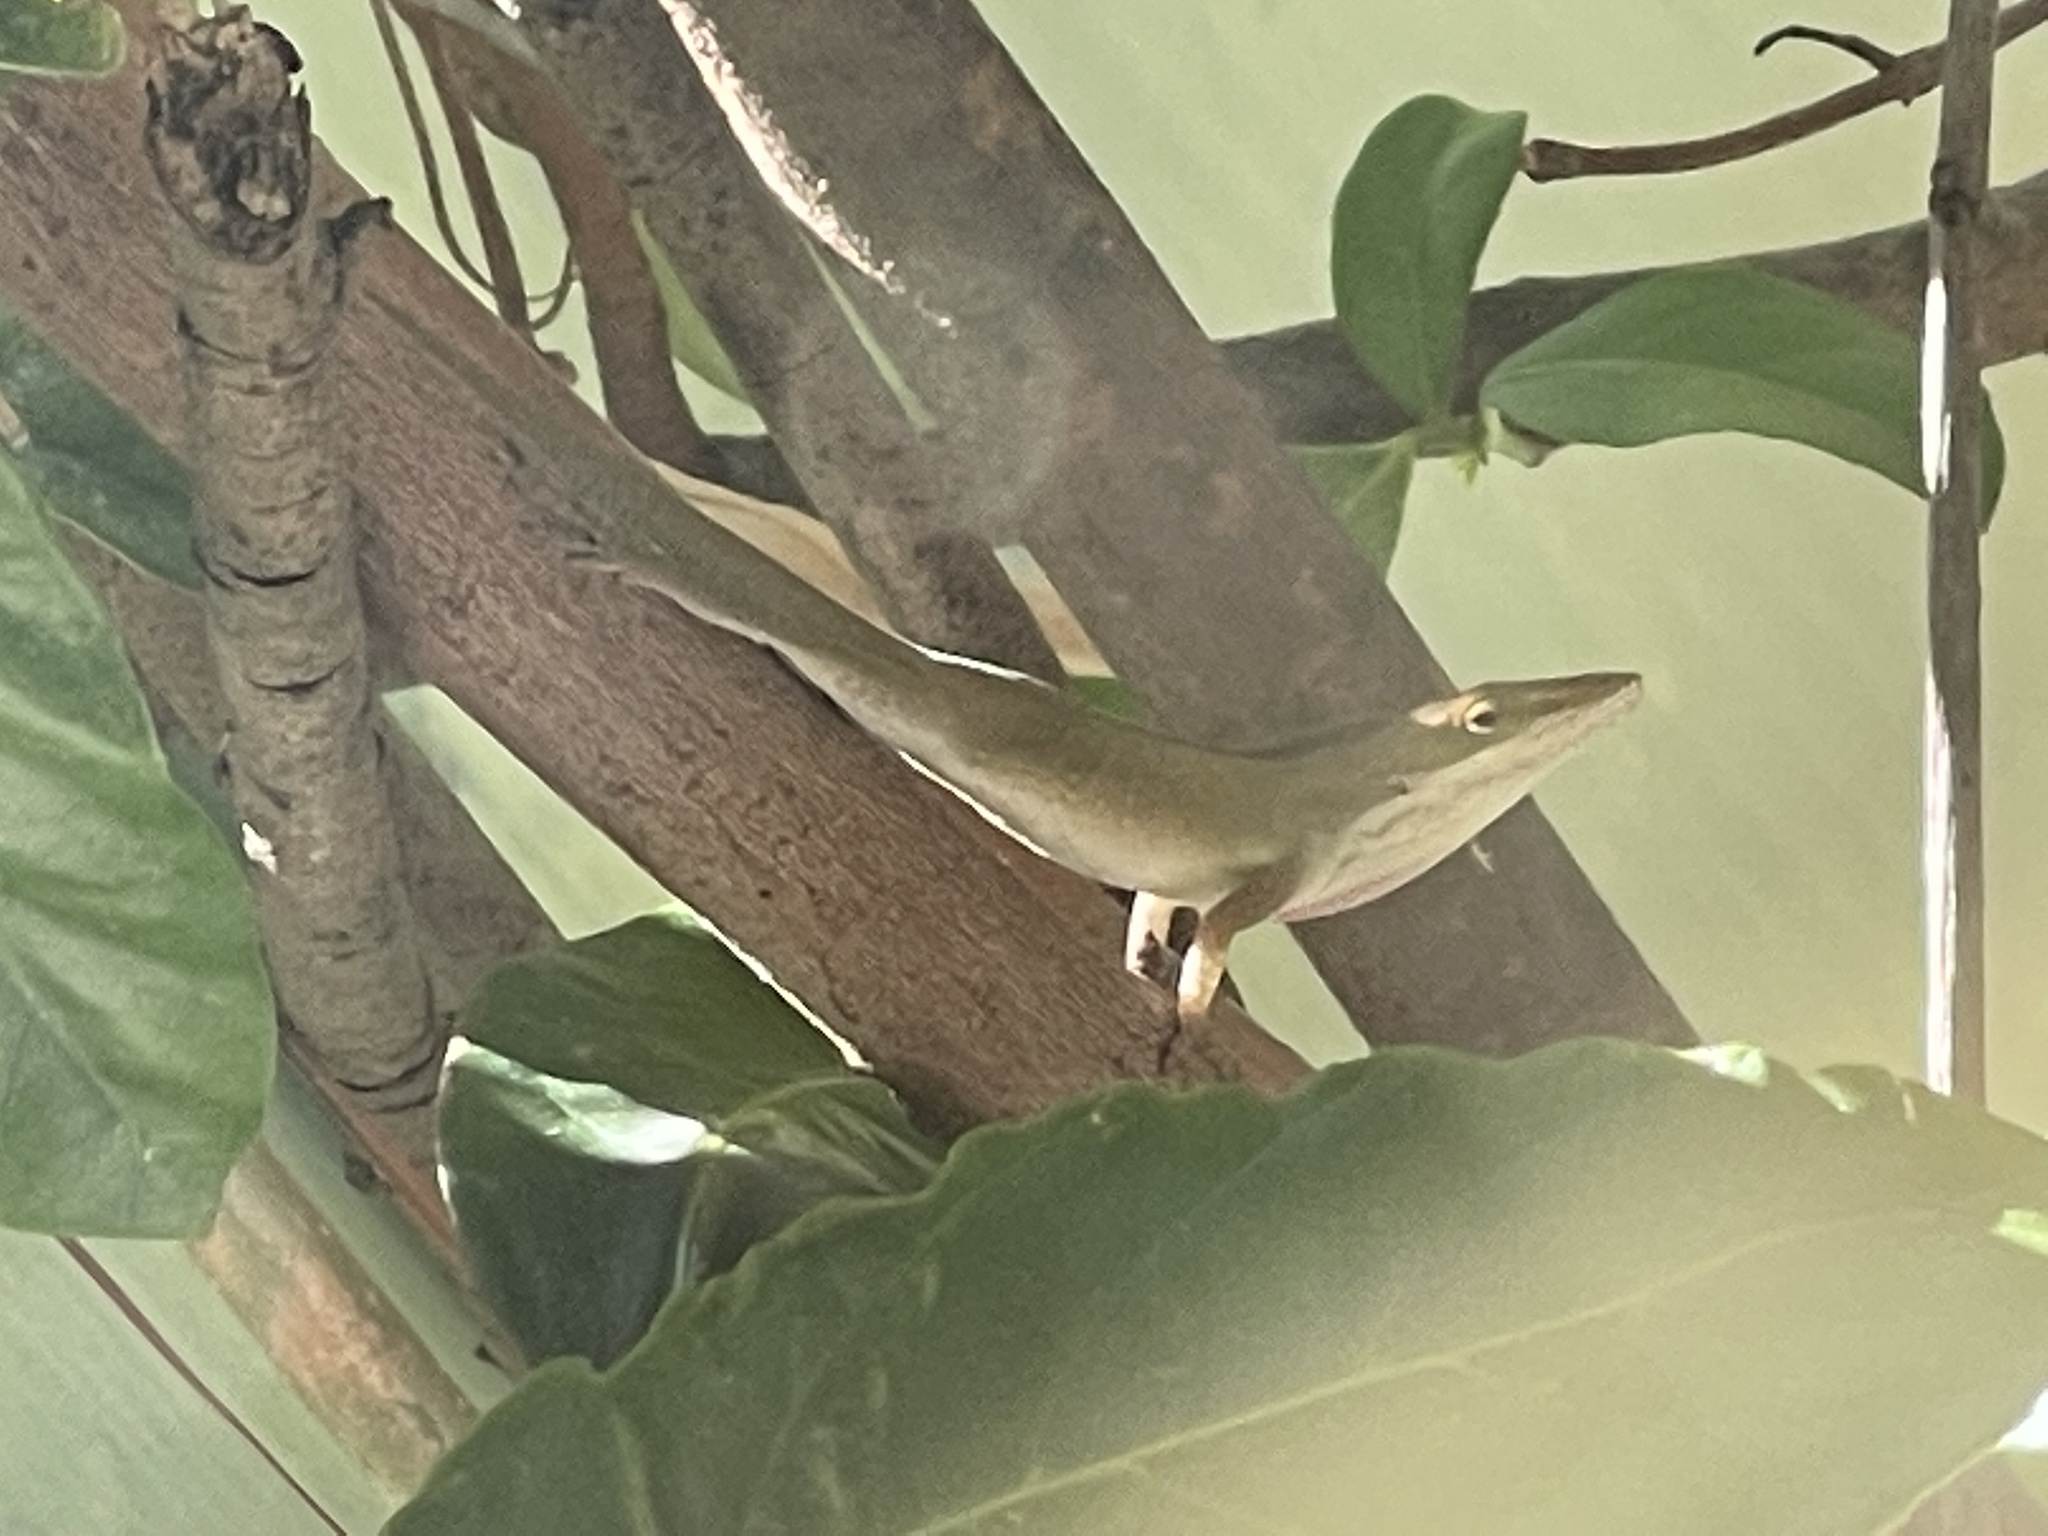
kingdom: Animalia
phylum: Chordata
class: Squamata
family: Dactyloidae
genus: Anolis
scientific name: Anolis carolinensis
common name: Green anole
